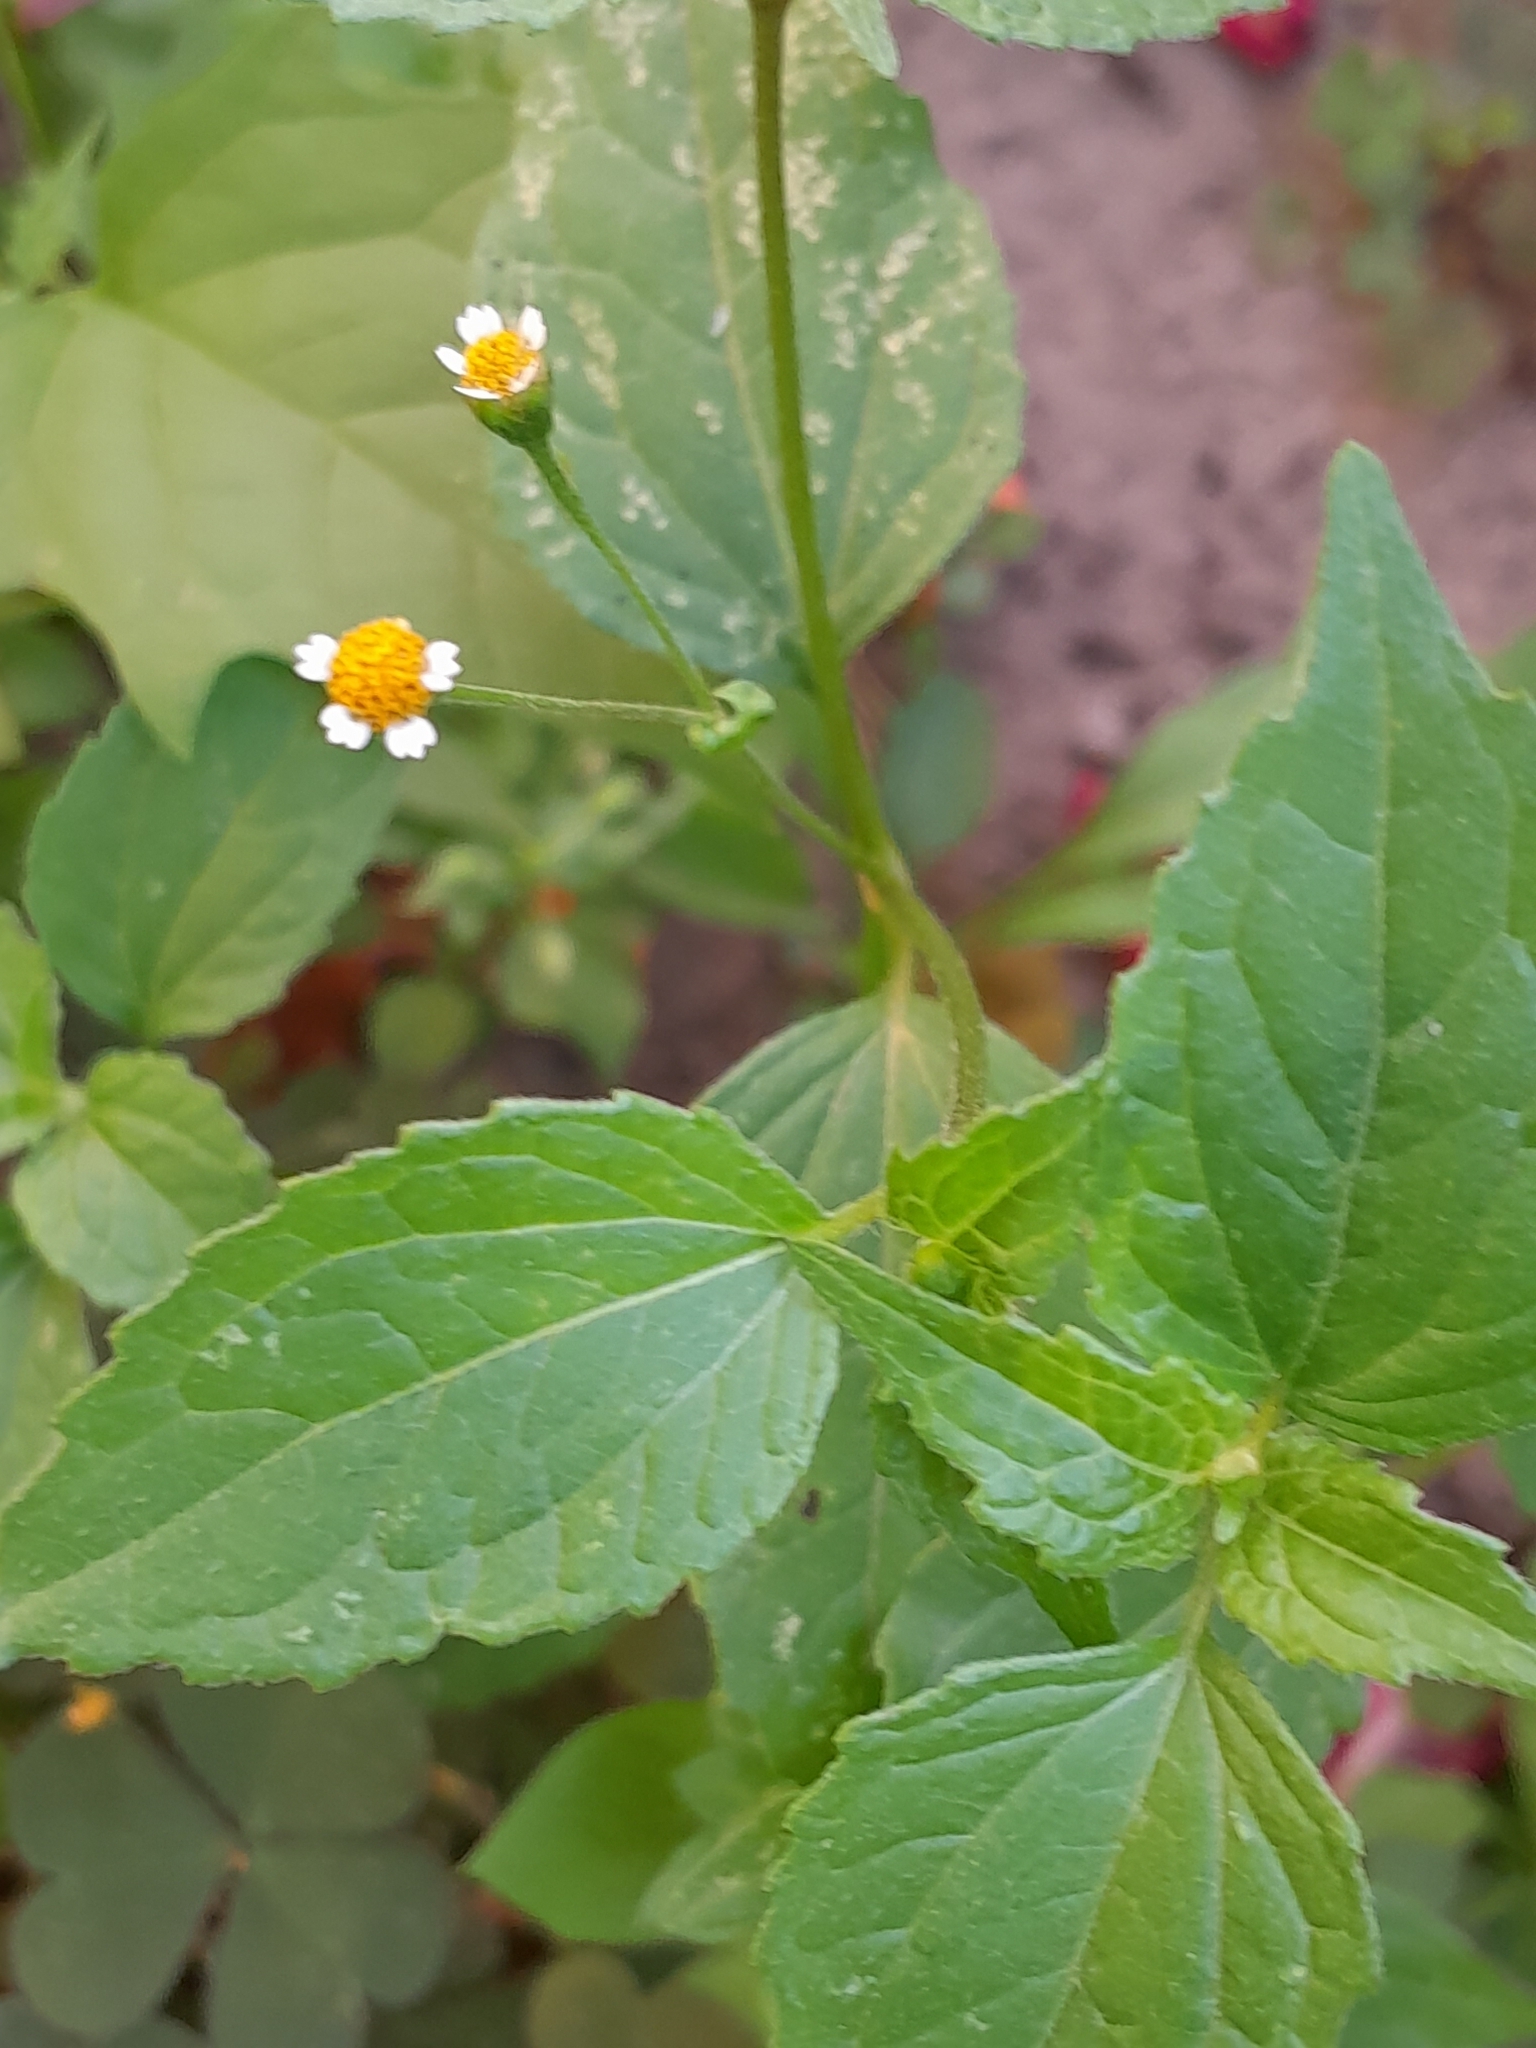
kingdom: Plantae
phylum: Tracheophyta
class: Magnoliopsida
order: Asterales
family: Asteraceae
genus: Galinsoga
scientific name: Galinsoga parviflora
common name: Gallant soldier
